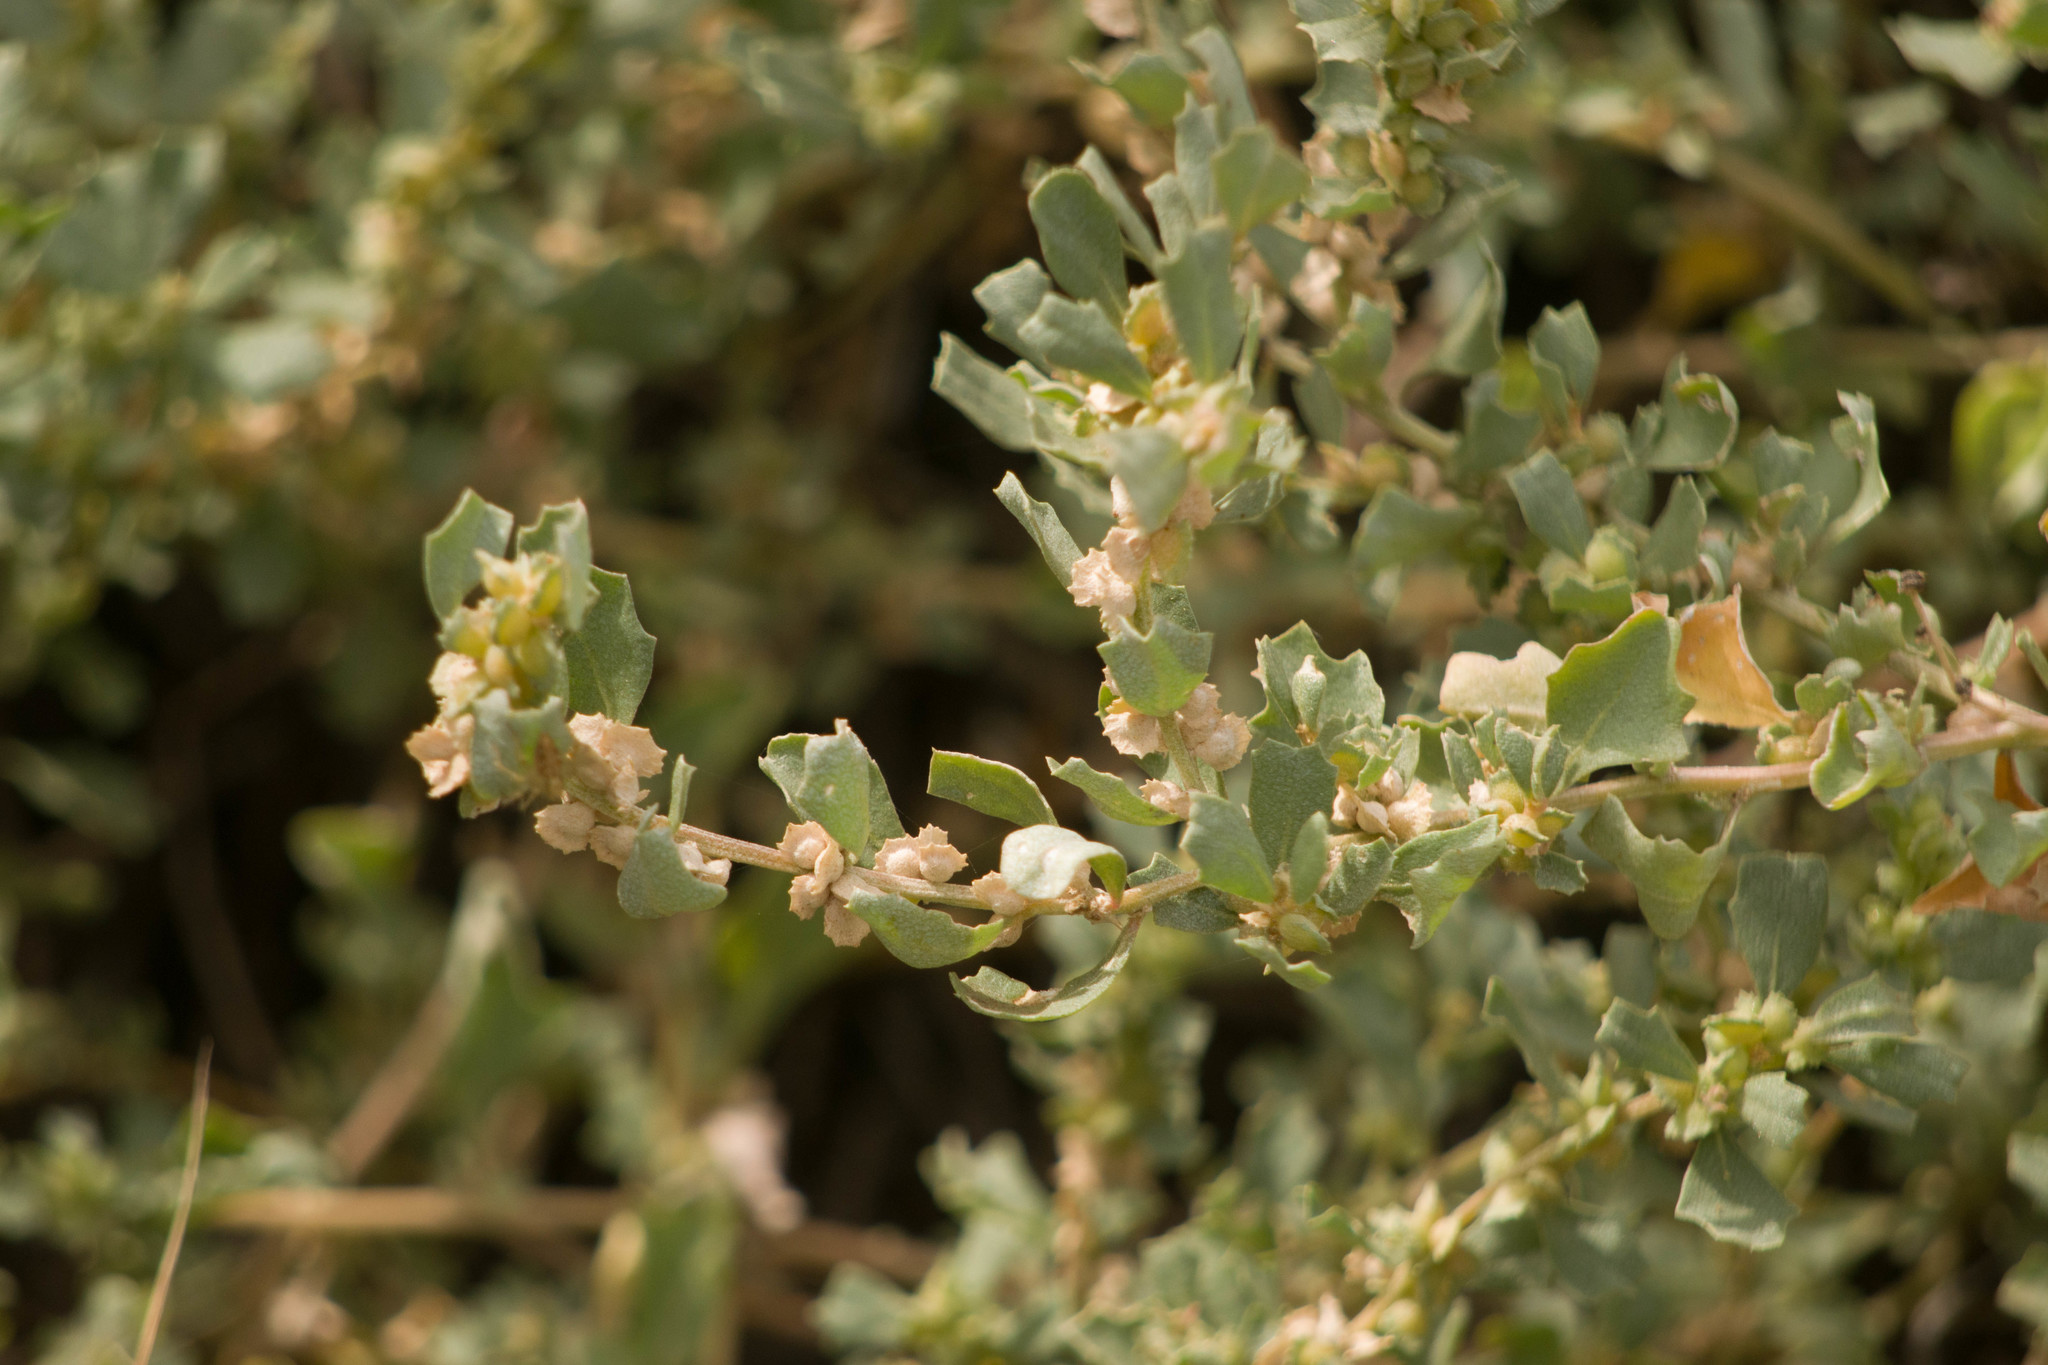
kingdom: Plantae
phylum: Tracheophyta
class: Magnoliopsida
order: Caryophyllales
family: Amaranthaceae
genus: Atriplex
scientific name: Atriplex muelleri
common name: Mueller's saltbush
